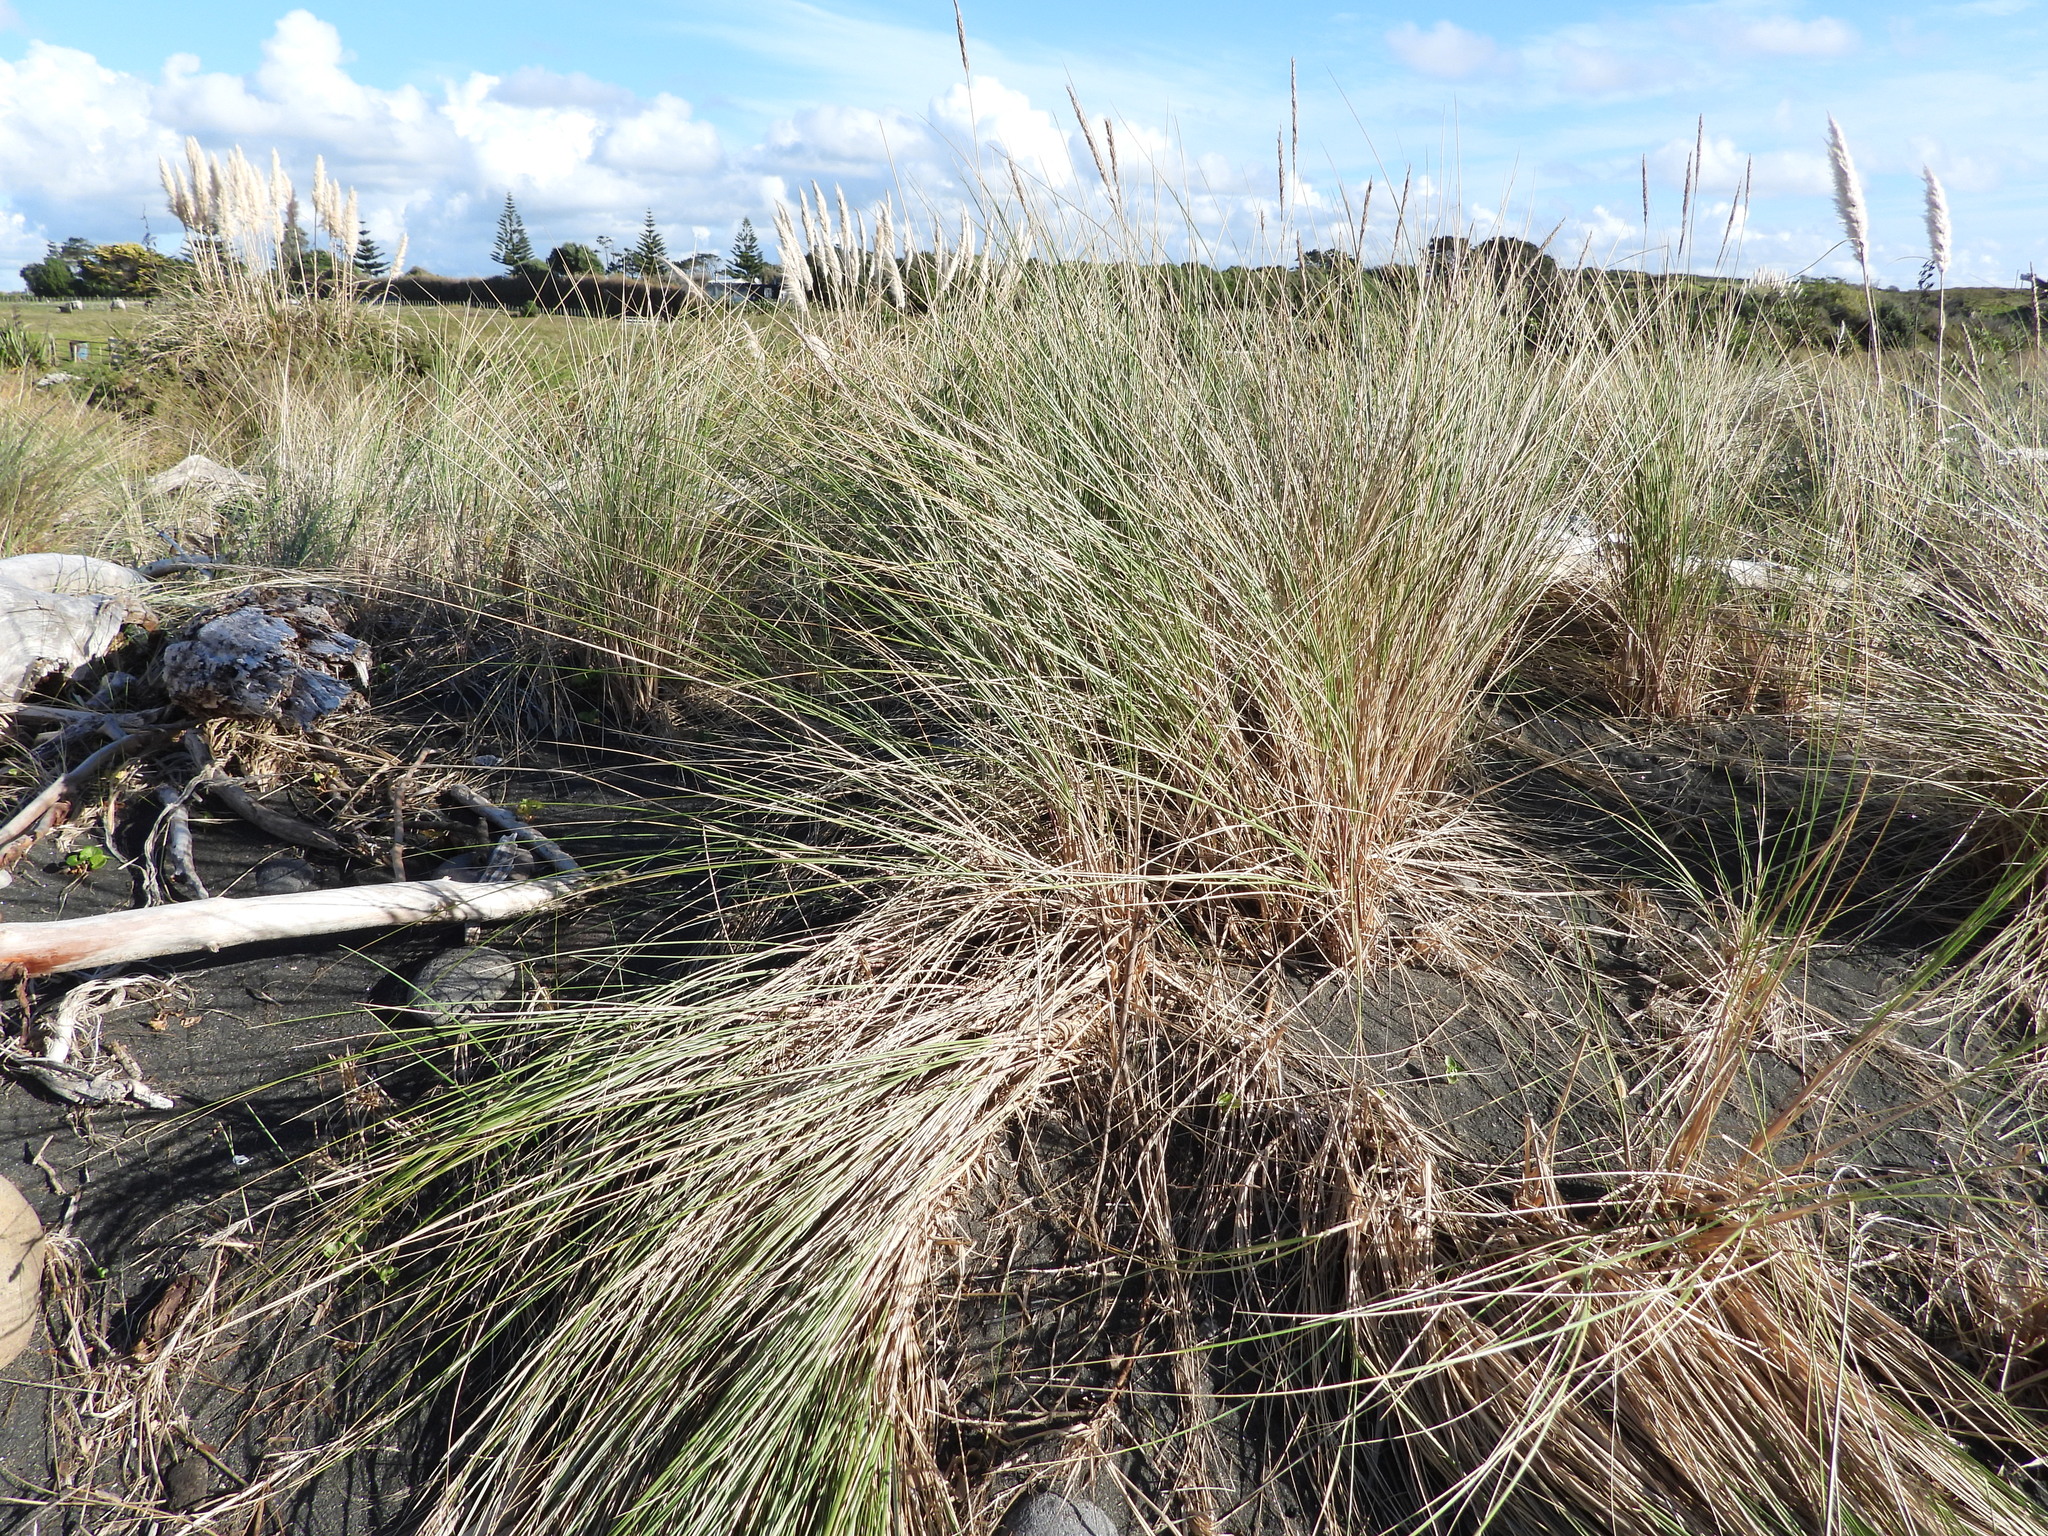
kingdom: Plantae
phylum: Tracheophyta
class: Liliopsida
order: Poales
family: Poaceae
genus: Calamagrostis
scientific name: Calamagrostis arenaria
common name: European beachgrass
